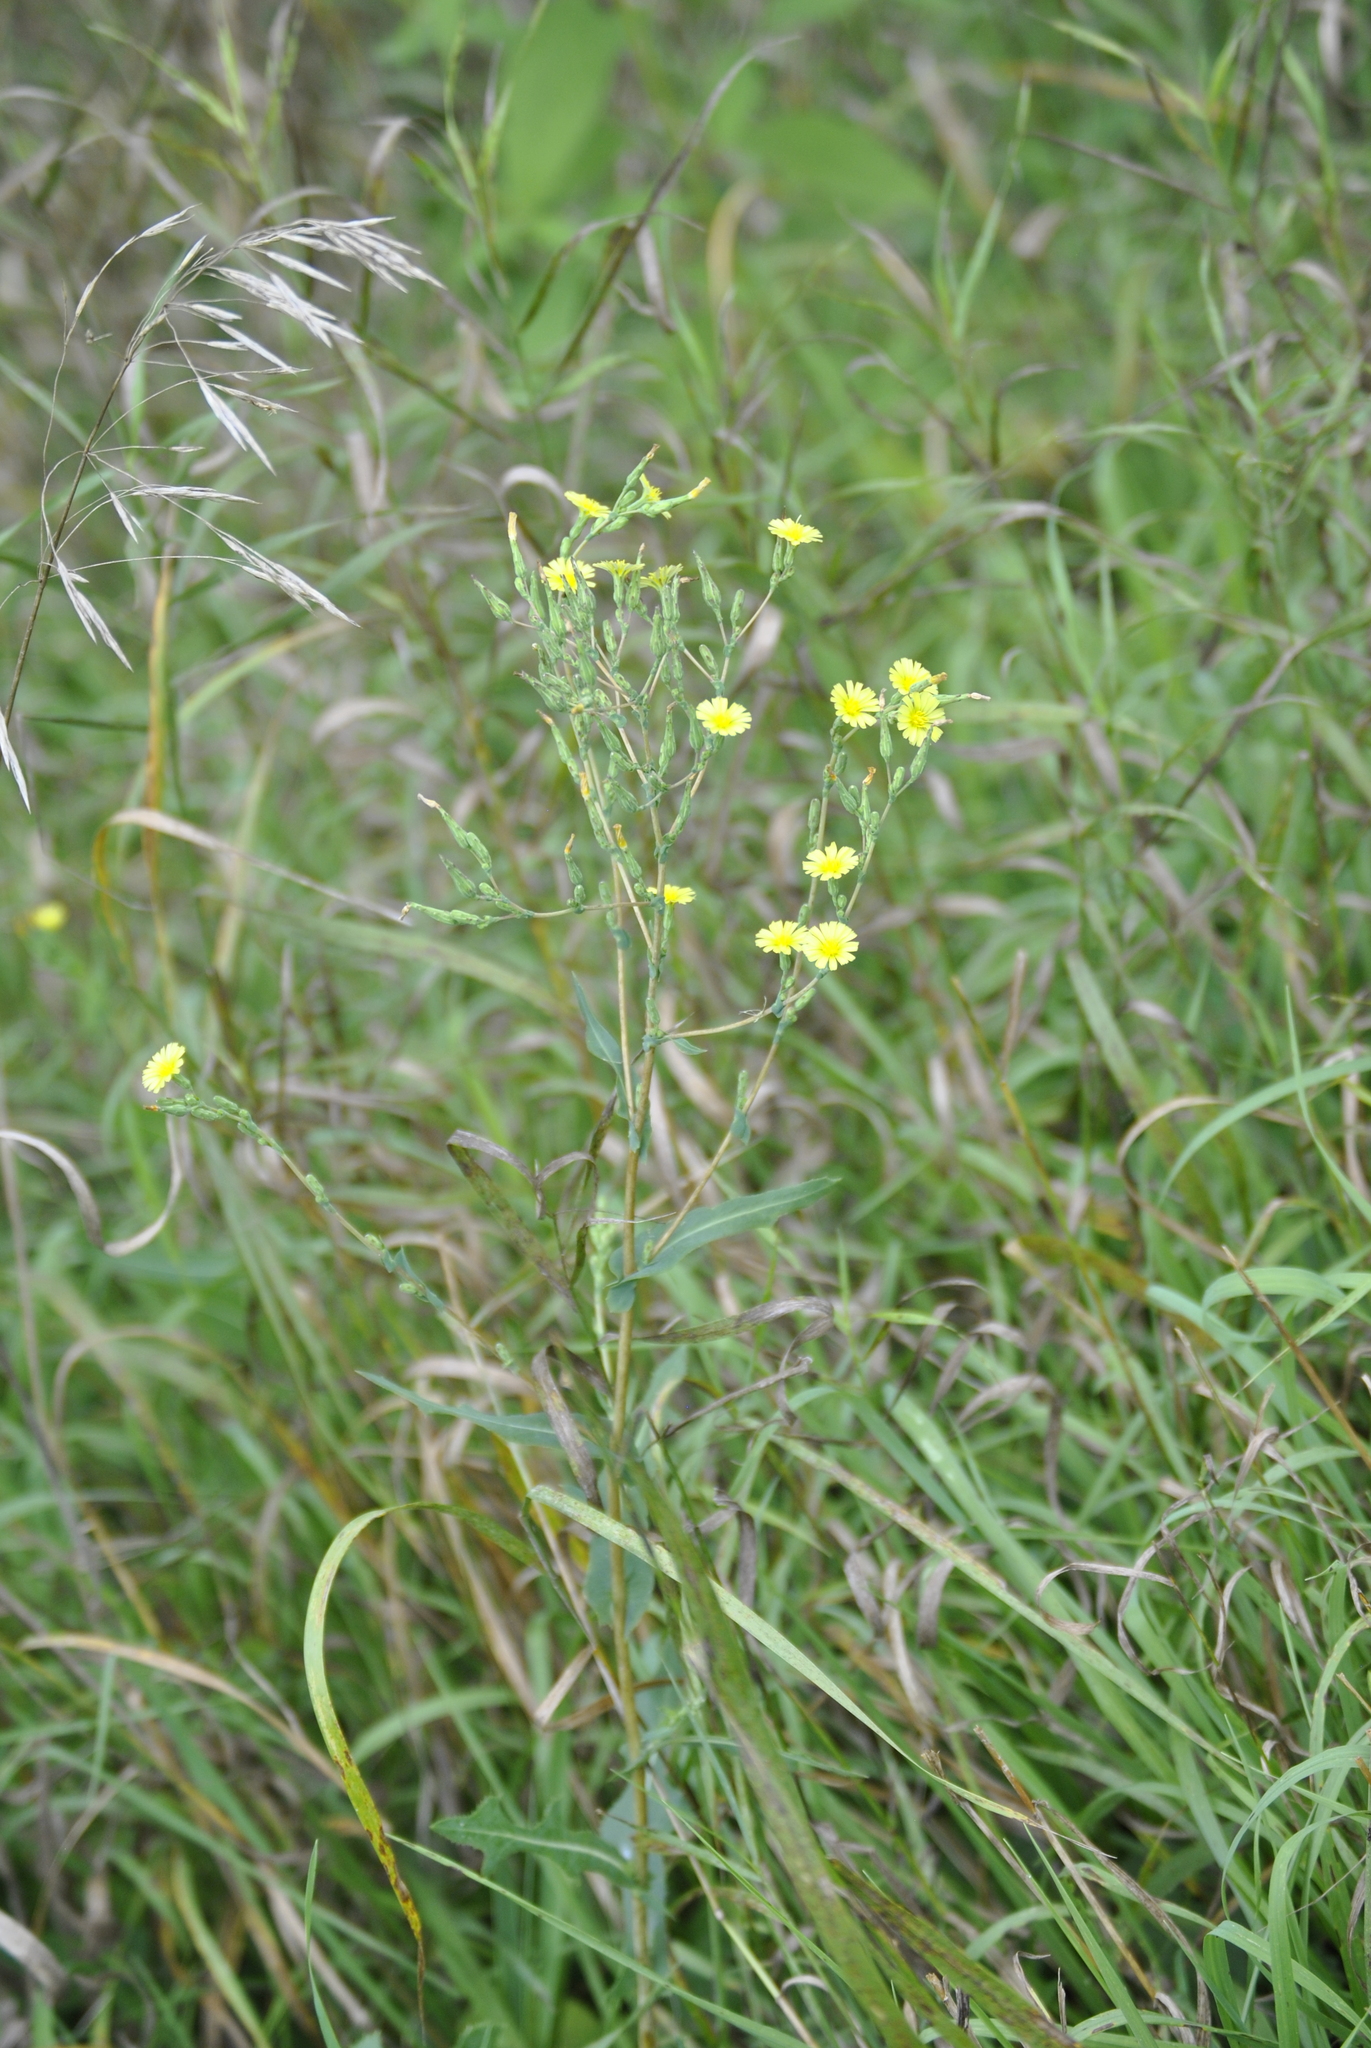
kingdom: Plantae
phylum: Tracheophyta
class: Magnoliopsida
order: Asterales
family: Asteraceae
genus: Lactuca
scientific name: Lactuca serriola
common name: Prickly lettuce
